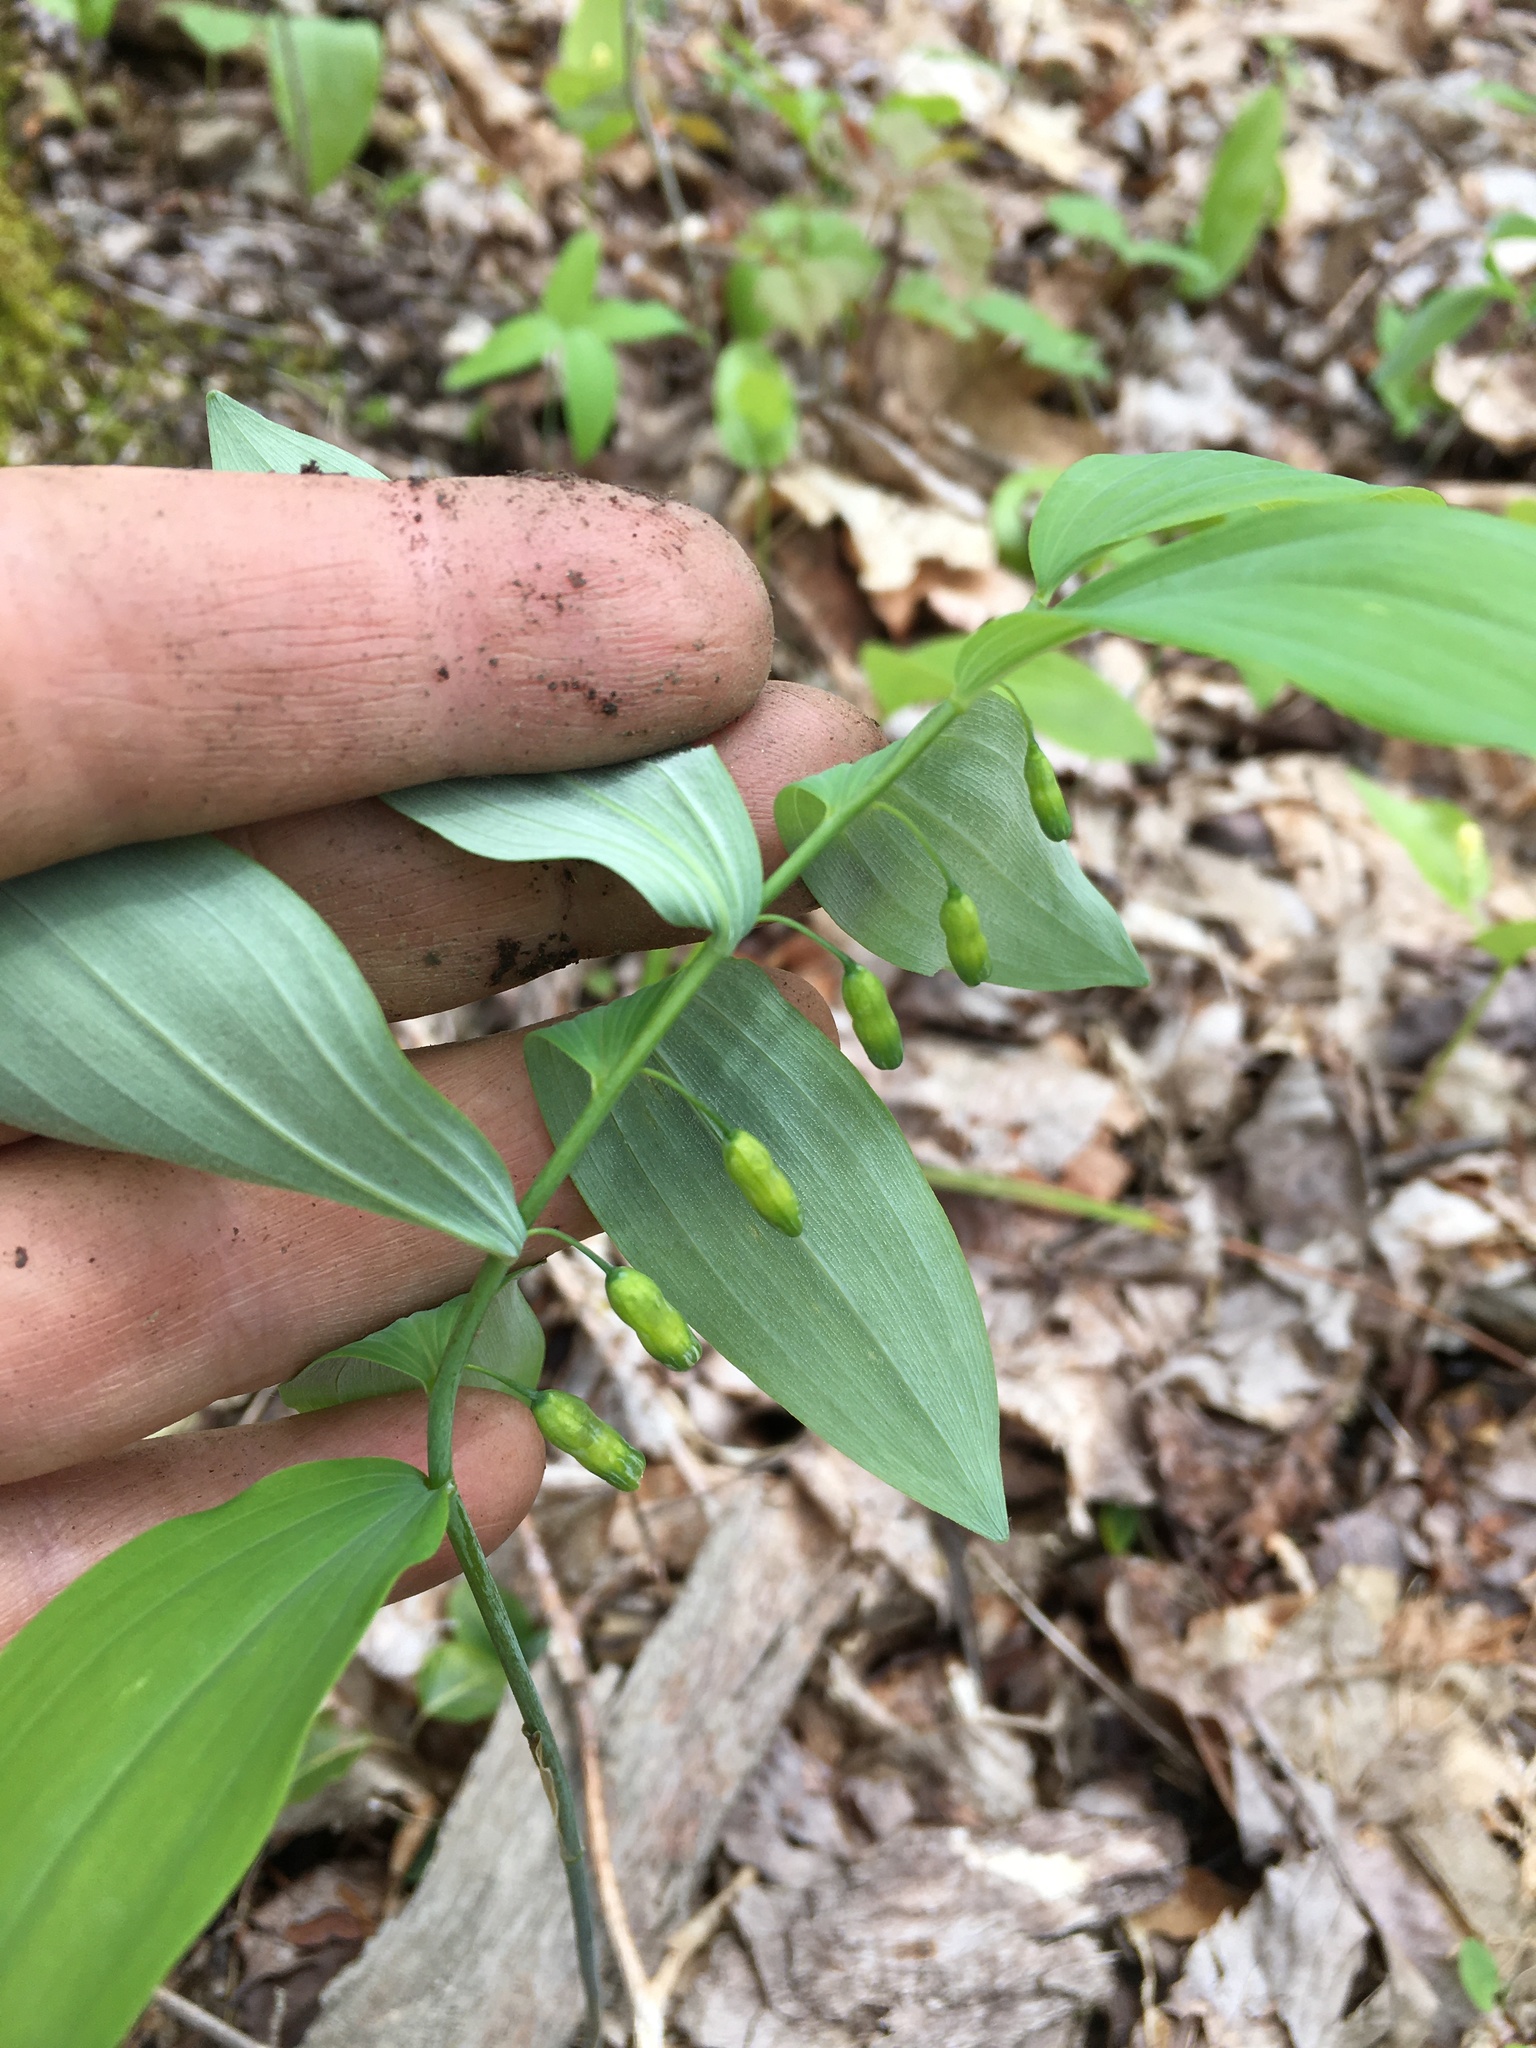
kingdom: Plantae
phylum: Tracheophyta
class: Liliopsida
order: Asparagales
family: Asparagaceae
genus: Polygonatum
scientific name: Polygonatum pubescens
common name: Downy solomon's seal
